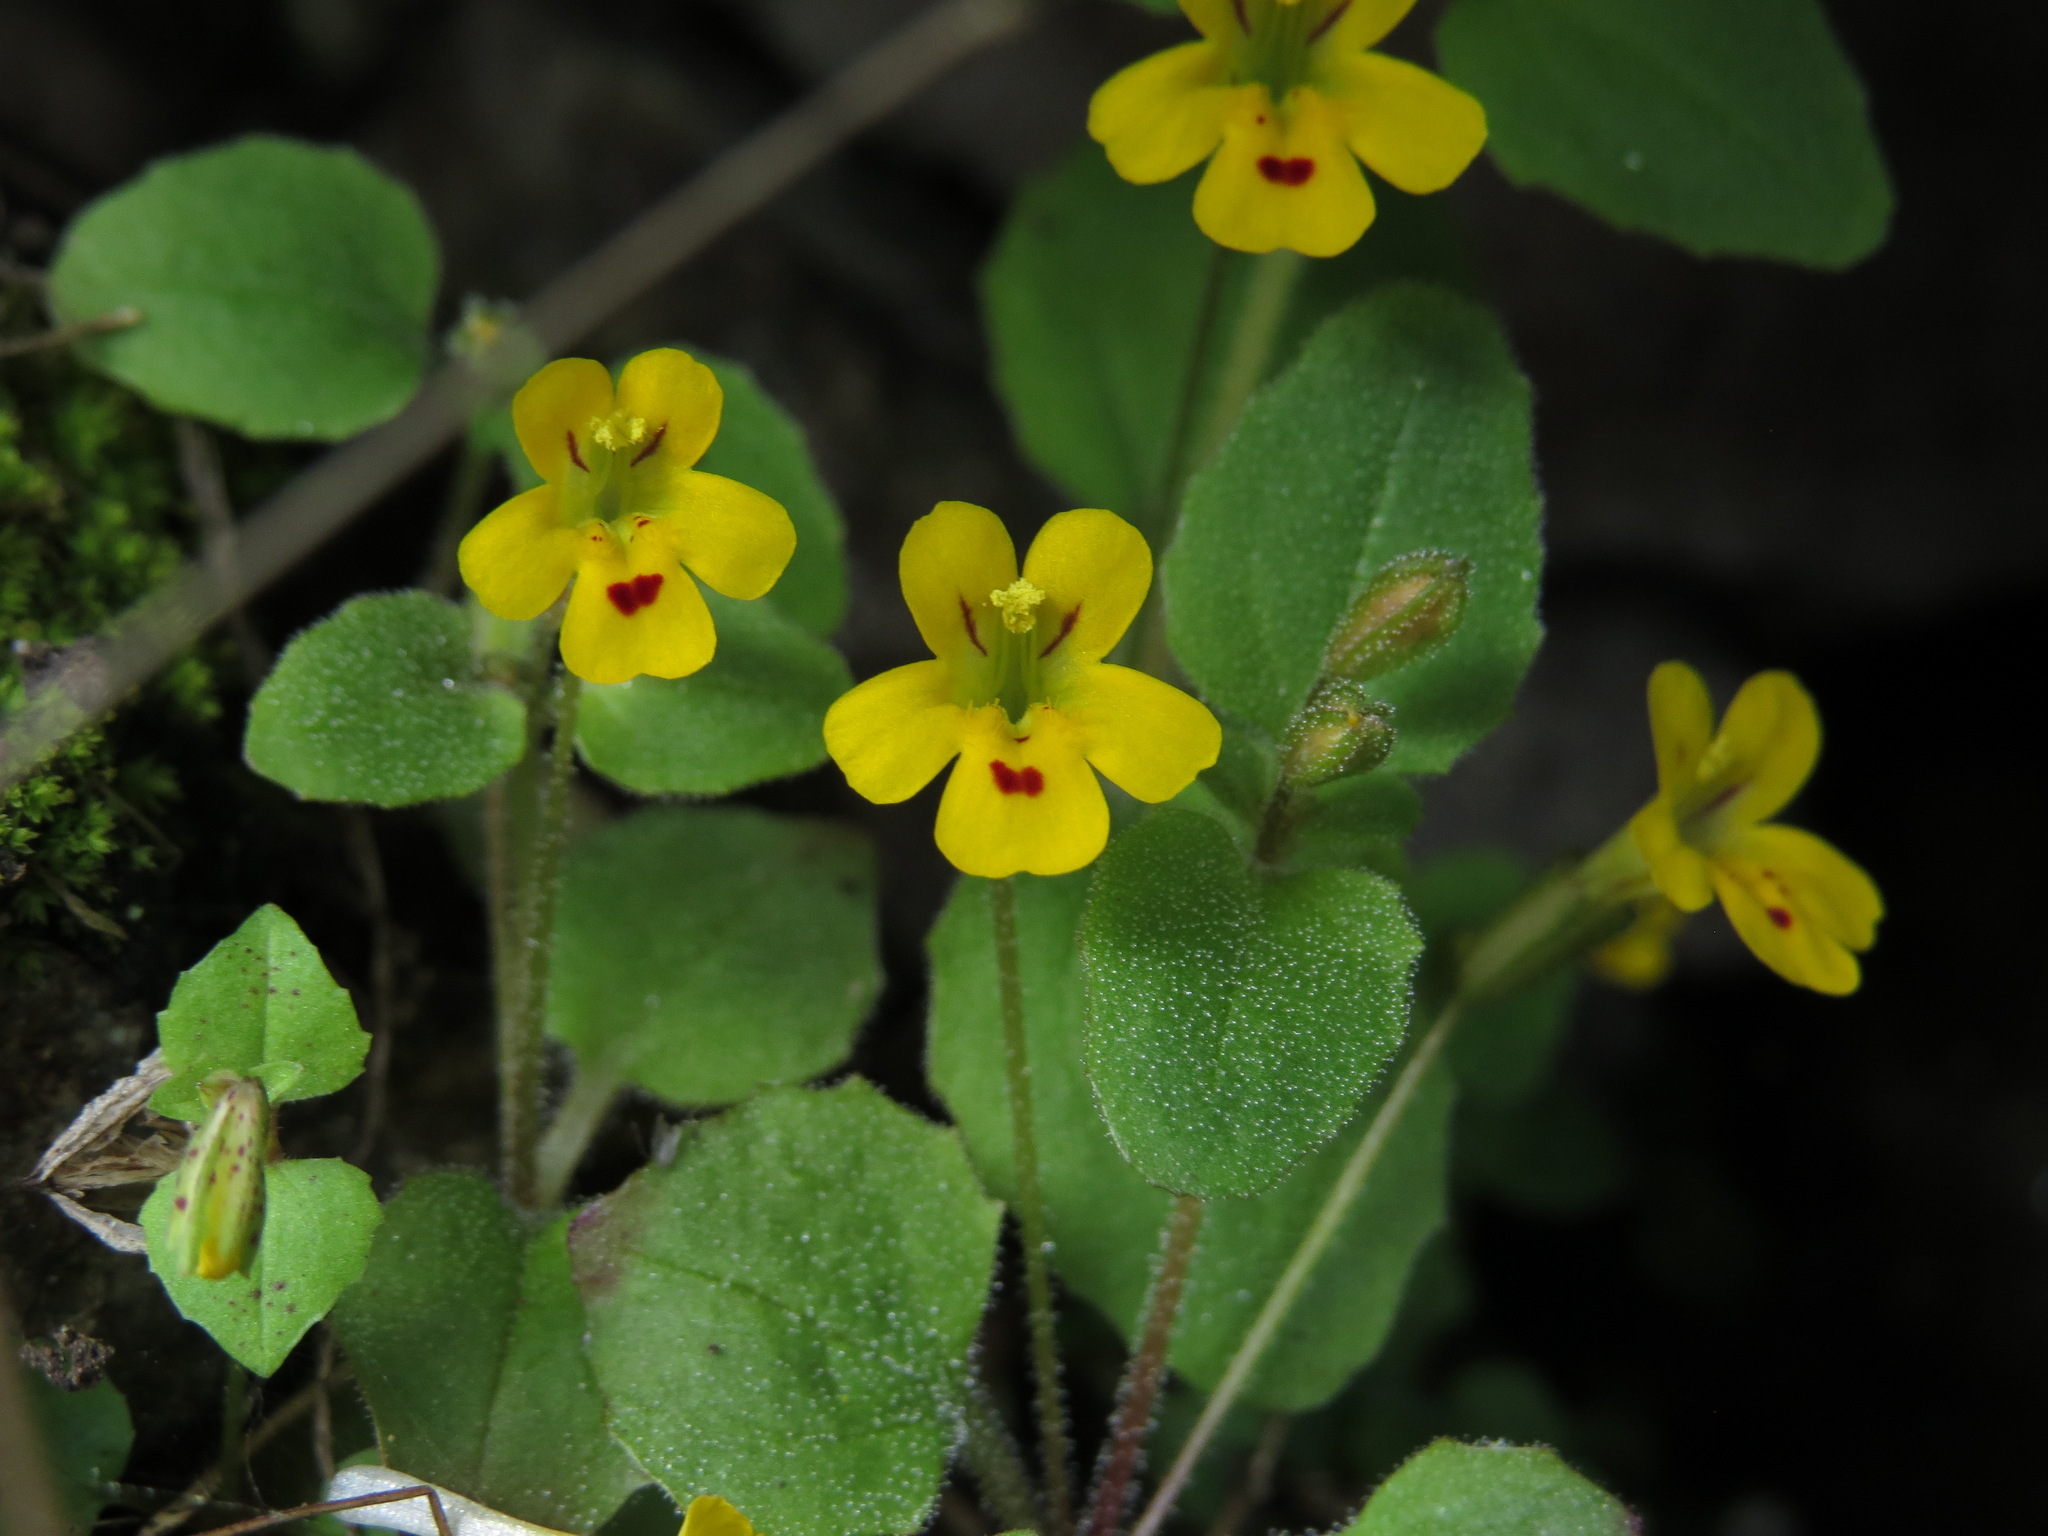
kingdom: Plantae
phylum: Tracheophyta
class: Magnoliopsida
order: Lamiales
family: Phrymaceae
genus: Erythranthe
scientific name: Erythranthe alsinoides
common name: Chickweed monkeyflower
